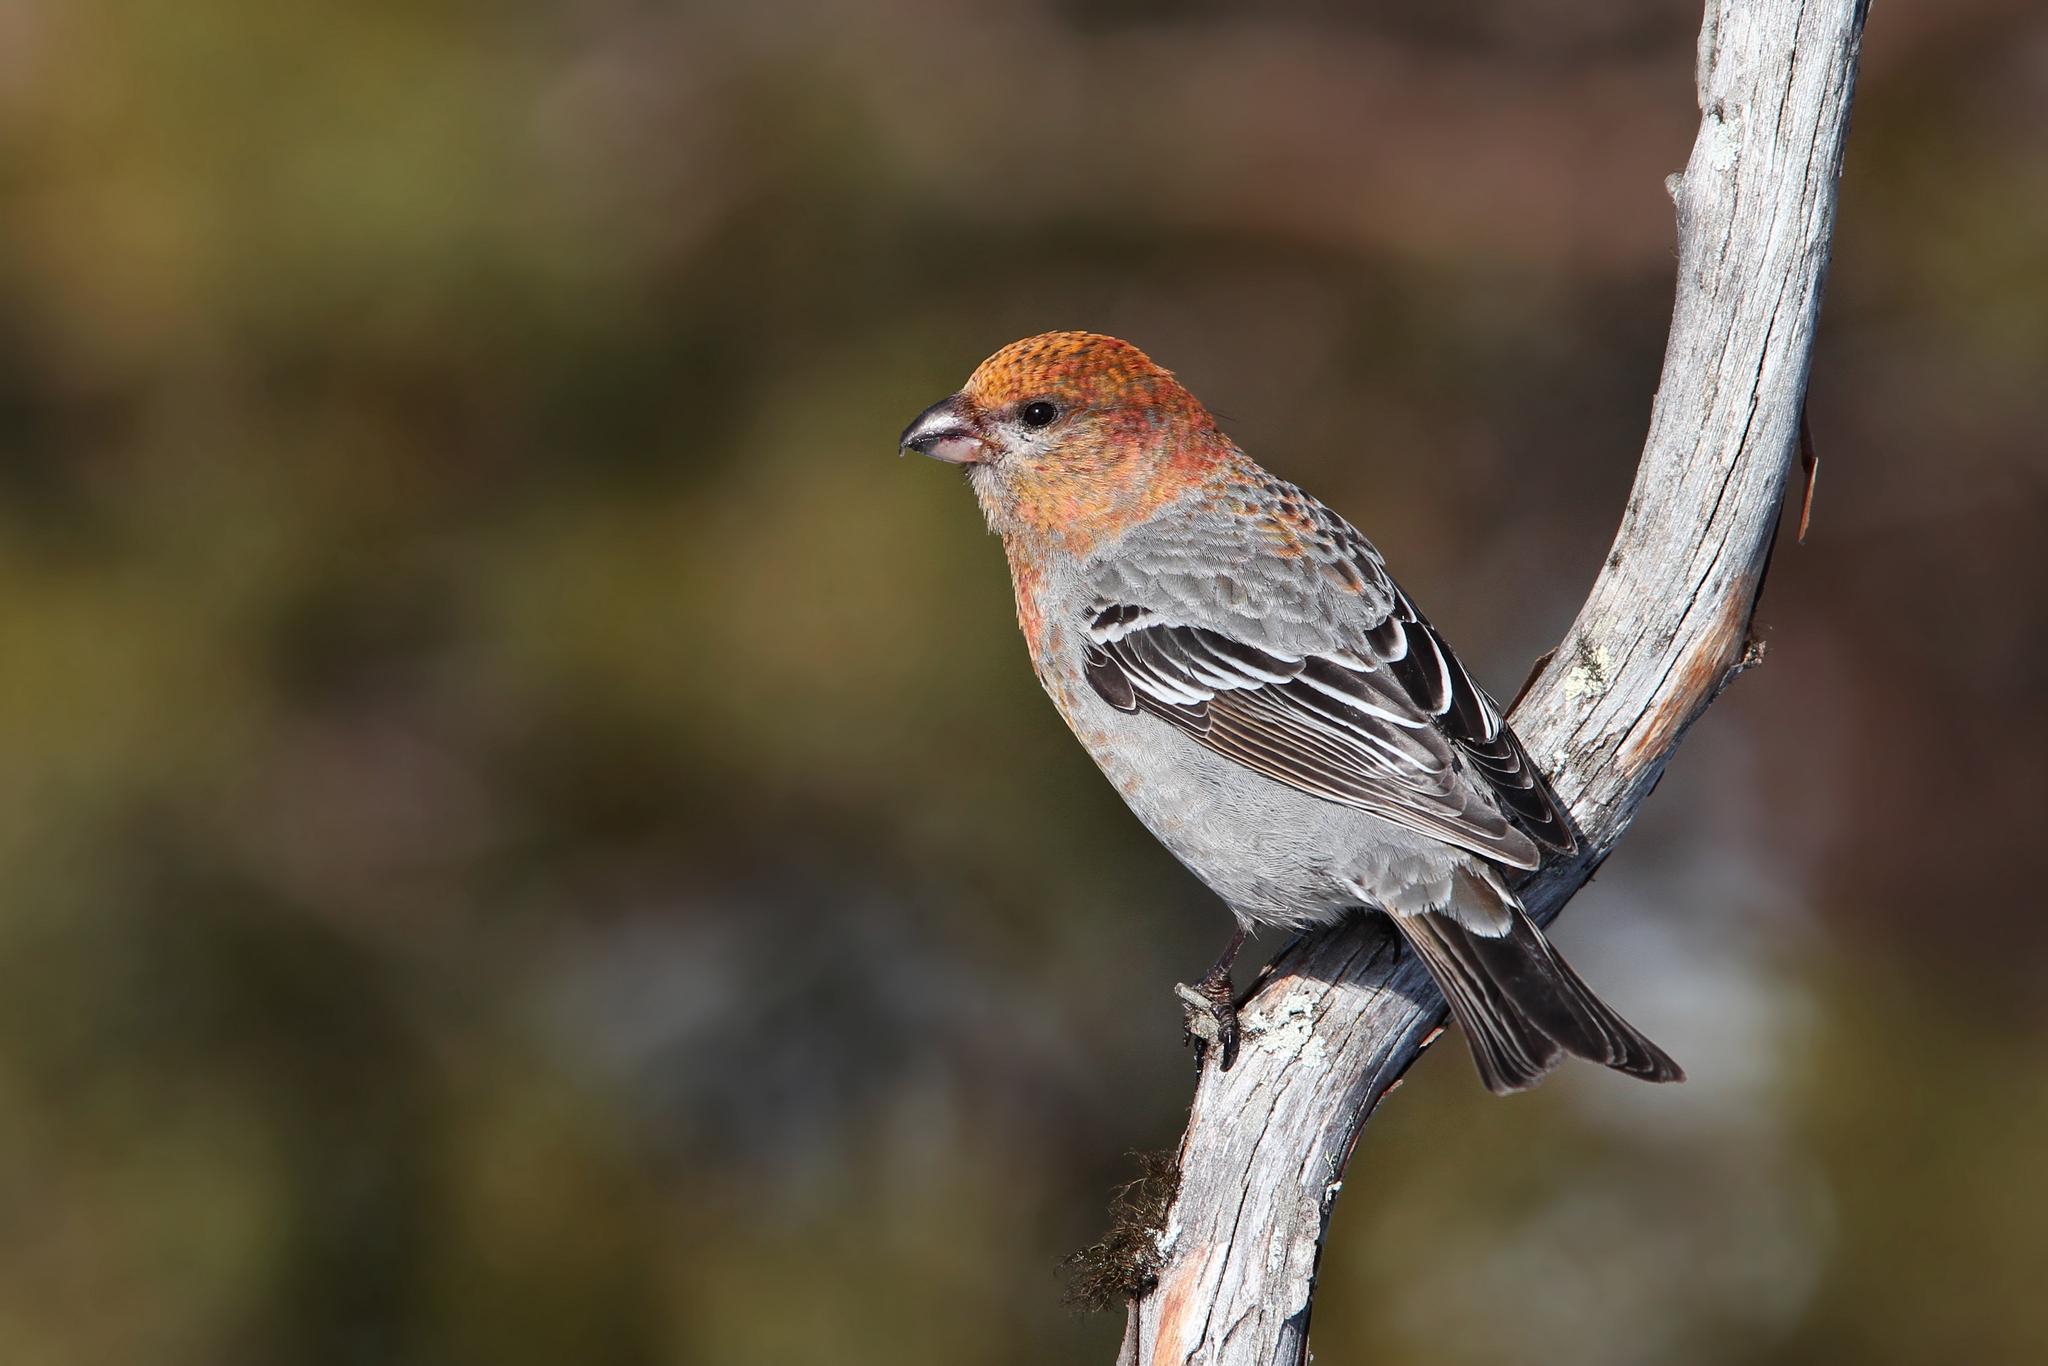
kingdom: Animalia
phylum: Chordata
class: Aves
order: Passeriformes
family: Fringillidae
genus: Pinicola
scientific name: Pinicola enucleator
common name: Pine grosbeak
